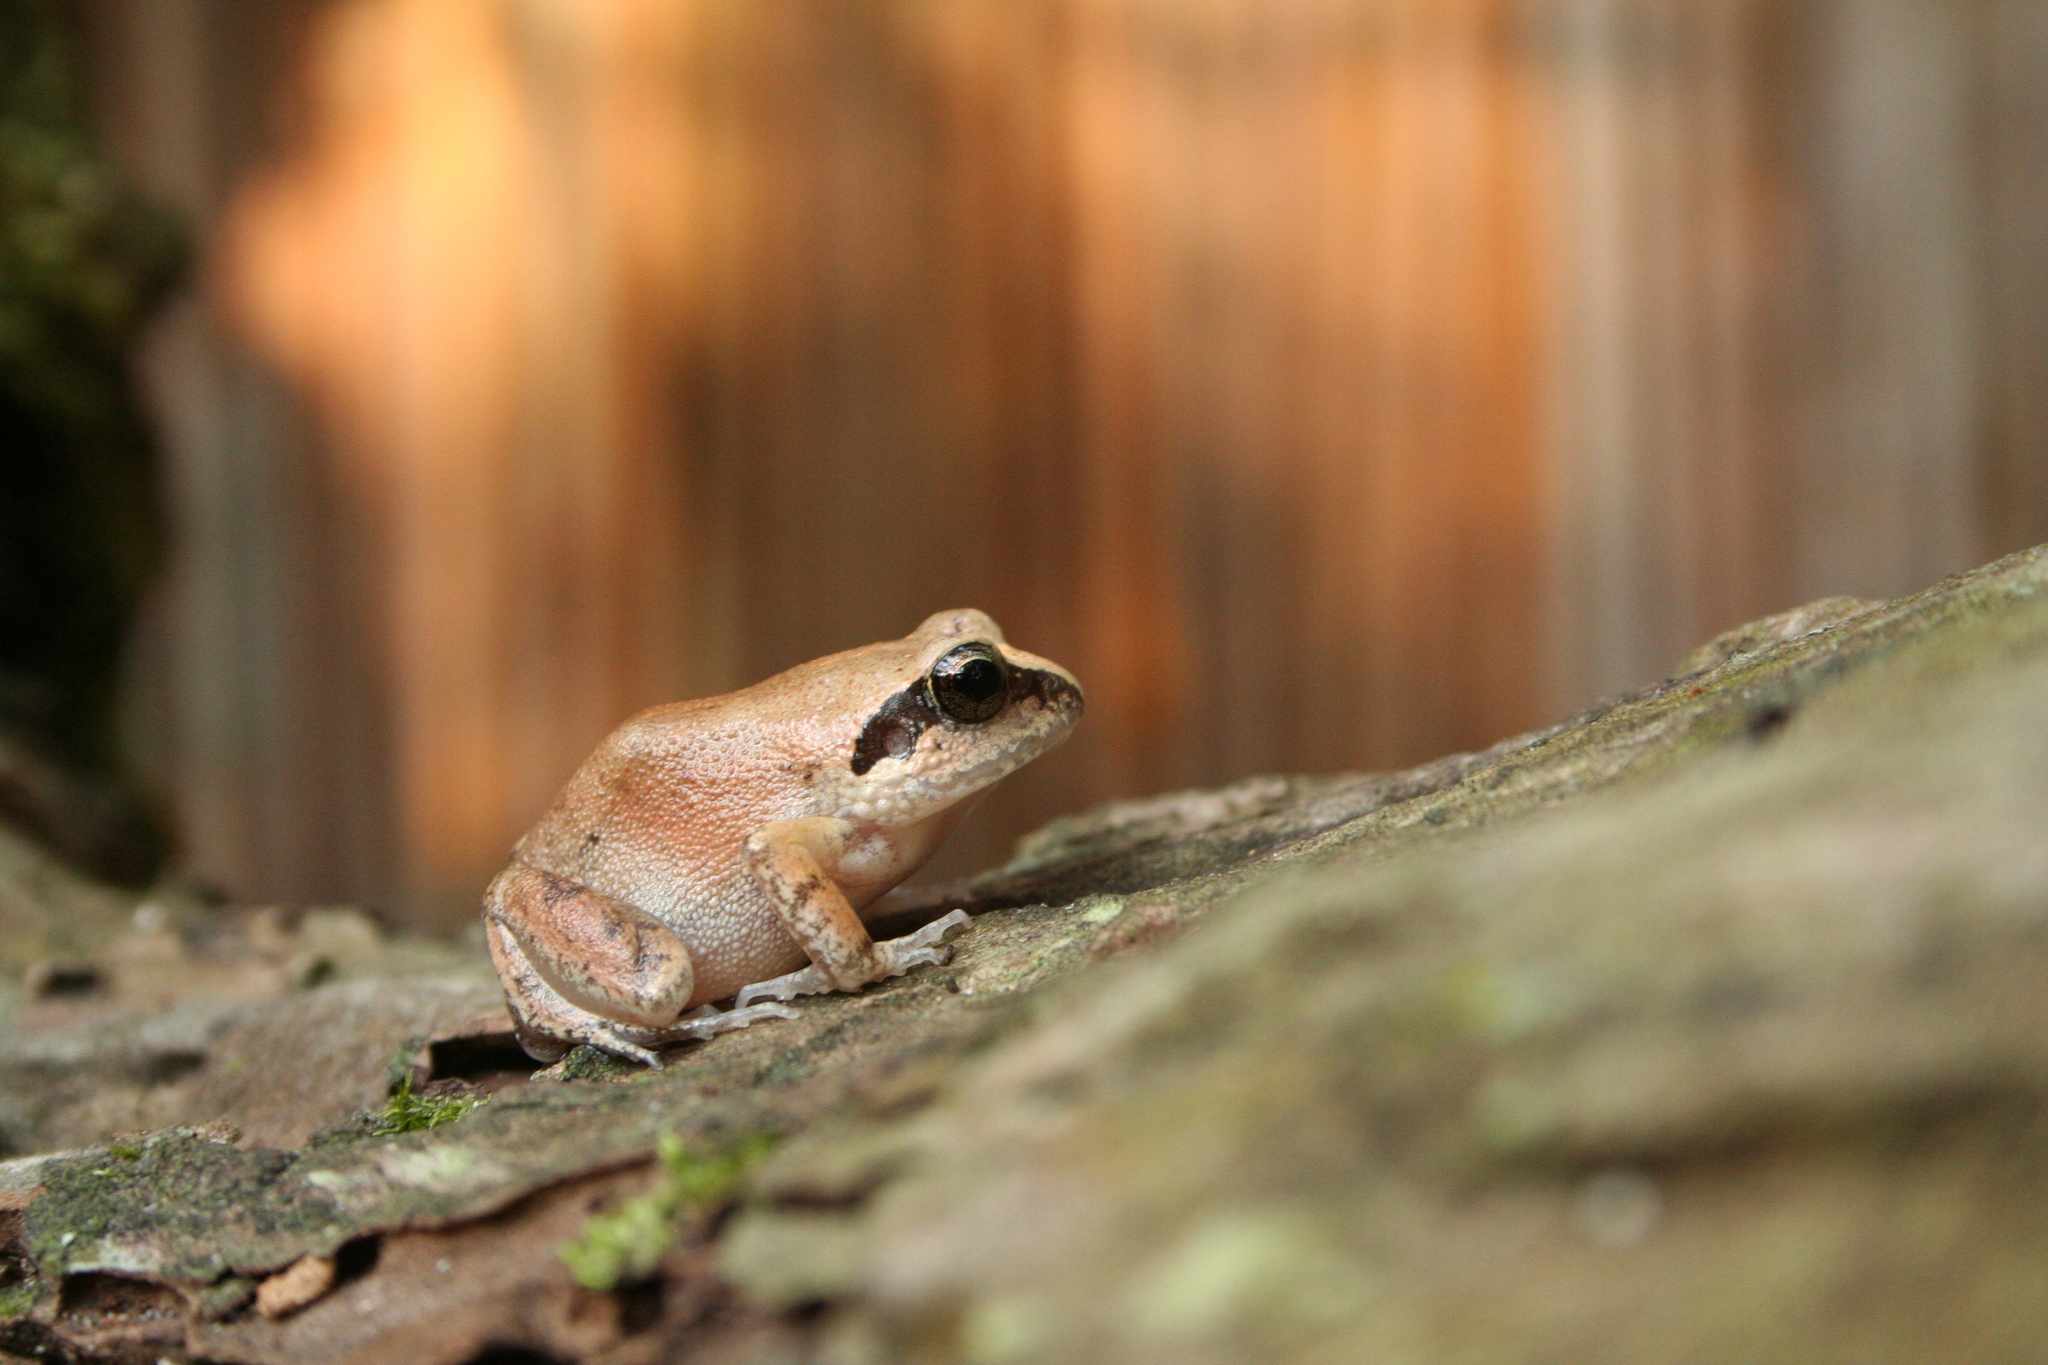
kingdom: Animalia
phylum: Chordata
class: Amphibia
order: Anura
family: Arthroleptidae
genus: Arthroleptis
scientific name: Arthroleptis stenodactylus
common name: Dune squeaker
